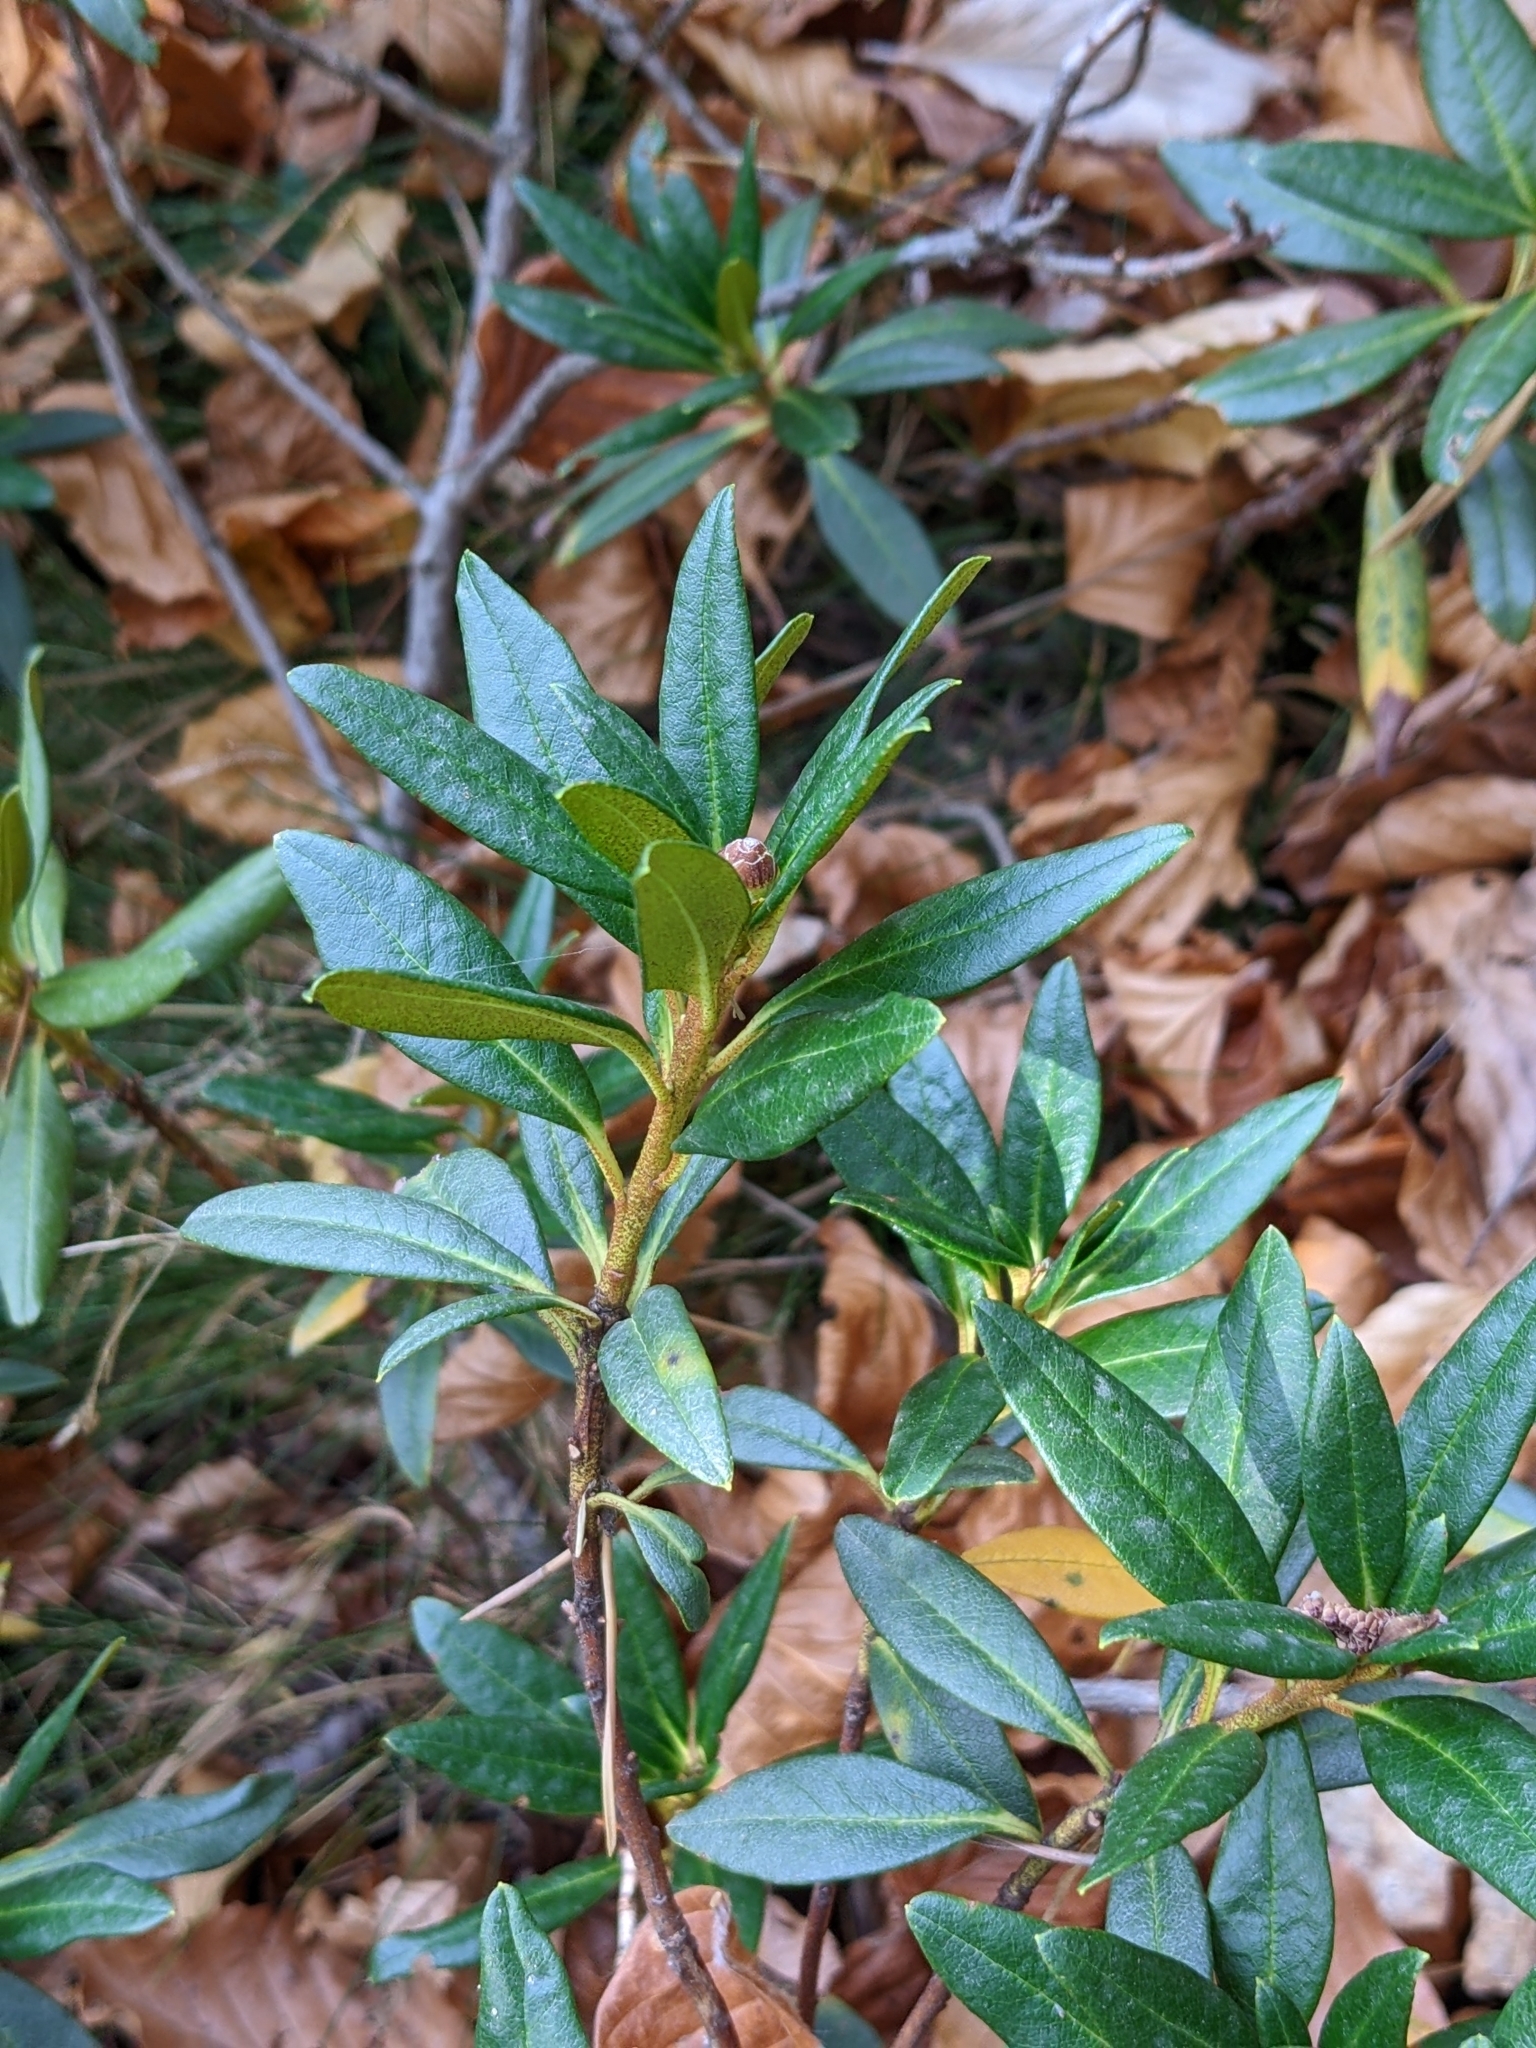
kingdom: Plantae
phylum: Tracheophyta
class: Magnoliopsida
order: Ericales
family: Ericaceae
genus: Rhododendron
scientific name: Rhododendron ferrugineum
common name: Alpenrose
